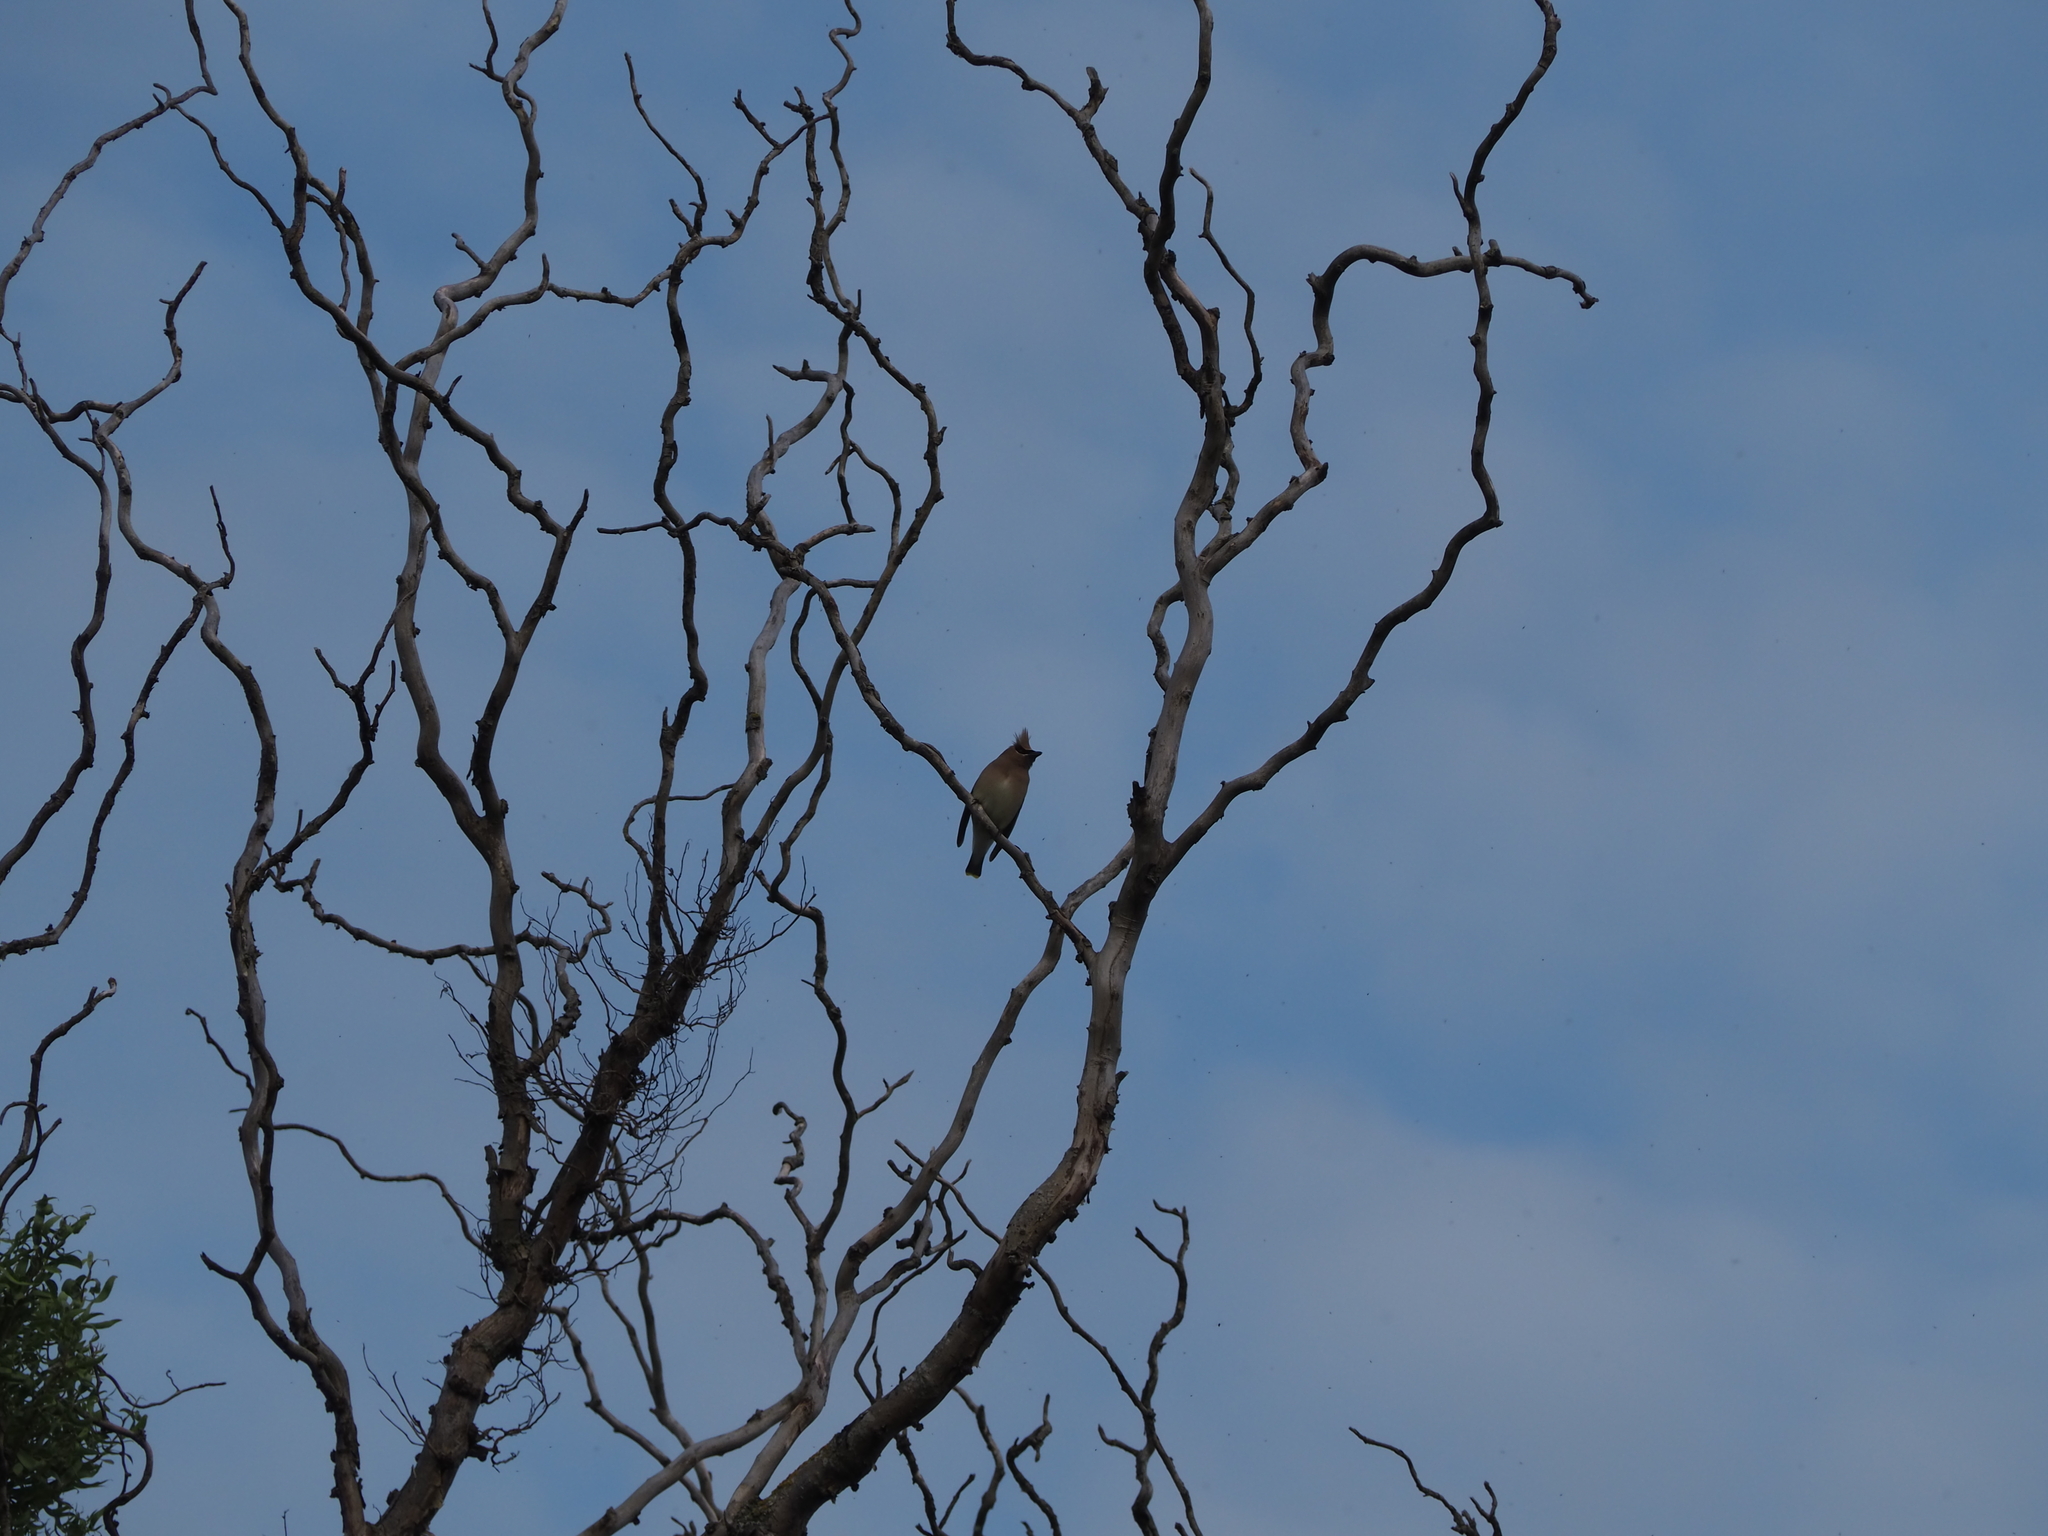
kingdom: Animalia
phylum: Chordata
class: Aves
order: Passeriformes
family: Bombycillidae
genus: Bombycilla
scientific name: Bombycilla cedrorum
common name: Cedar waxwing
